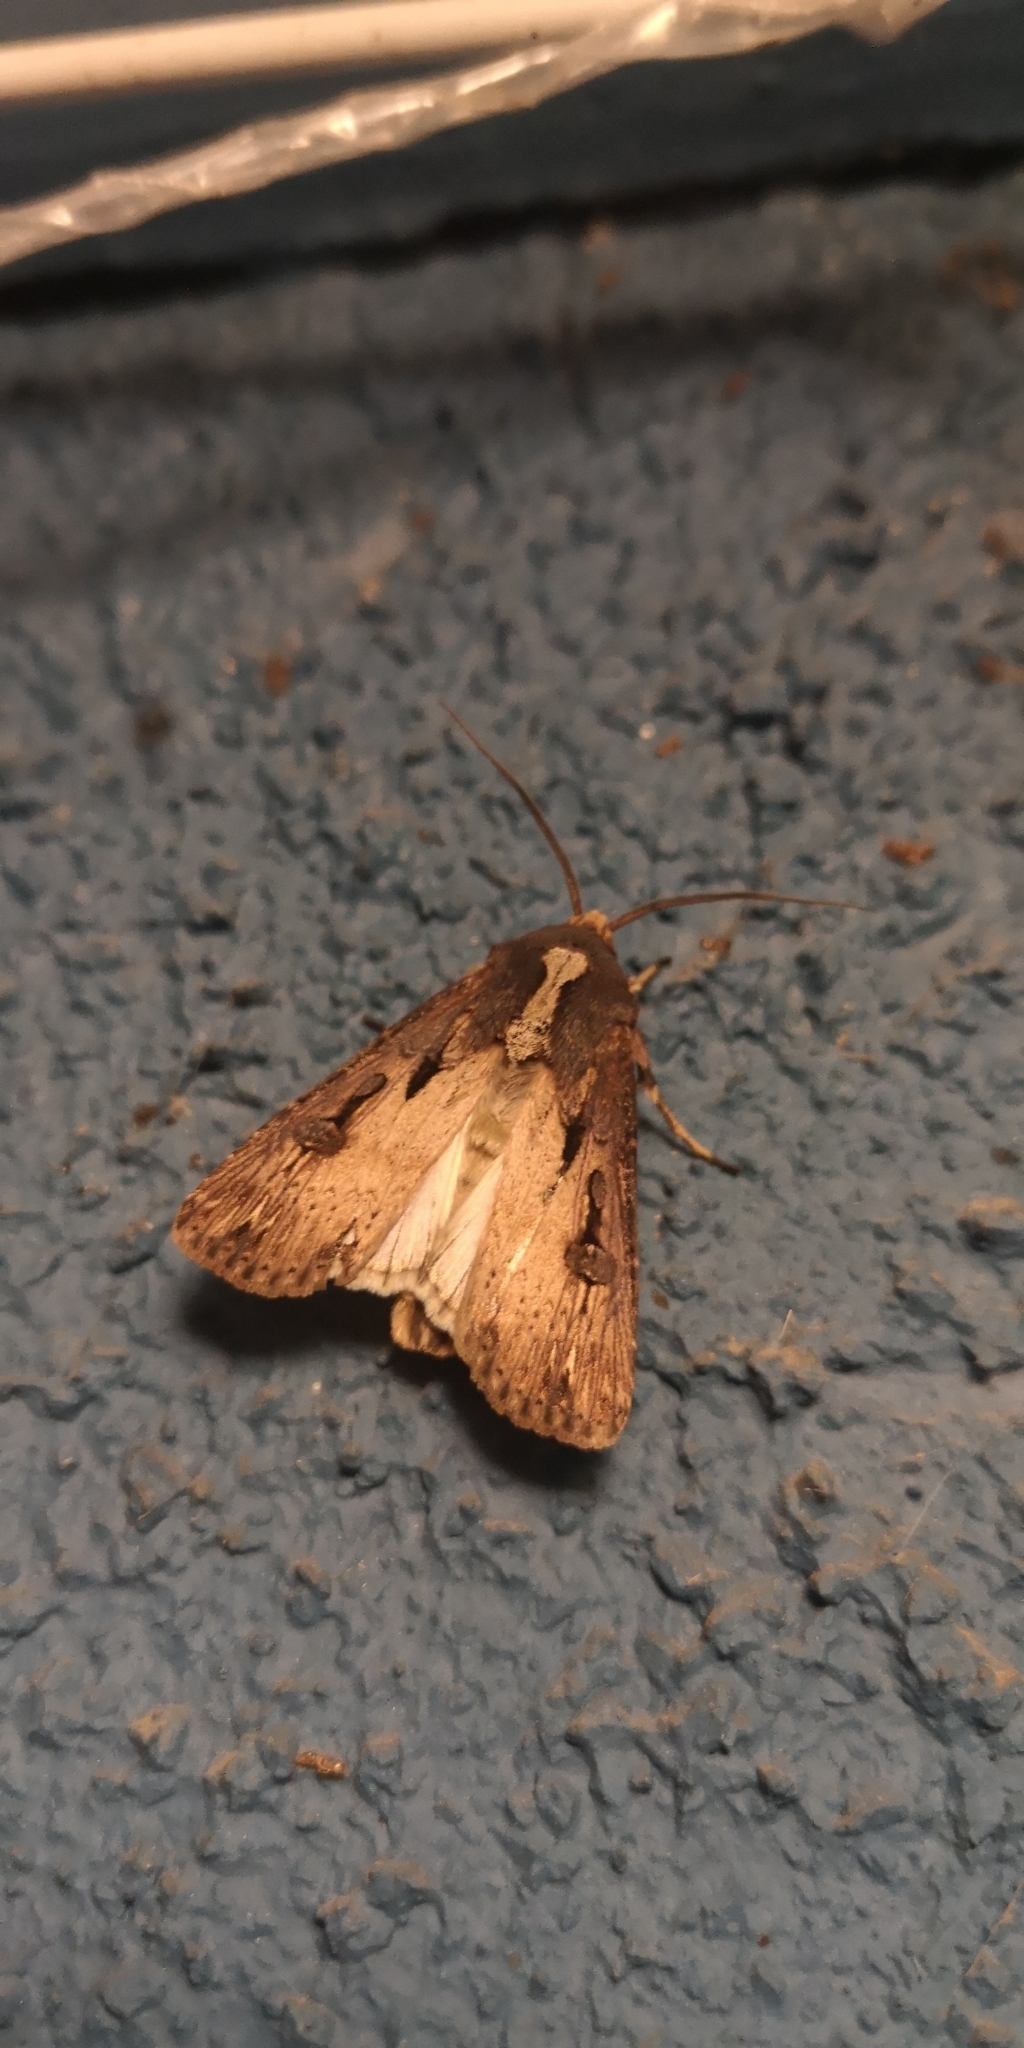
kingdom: Animalia
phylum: Arthropoda
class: Insecta
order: Lepidoptera
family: Noctuidae
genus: Agrotis
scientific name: Agrotis robusta
